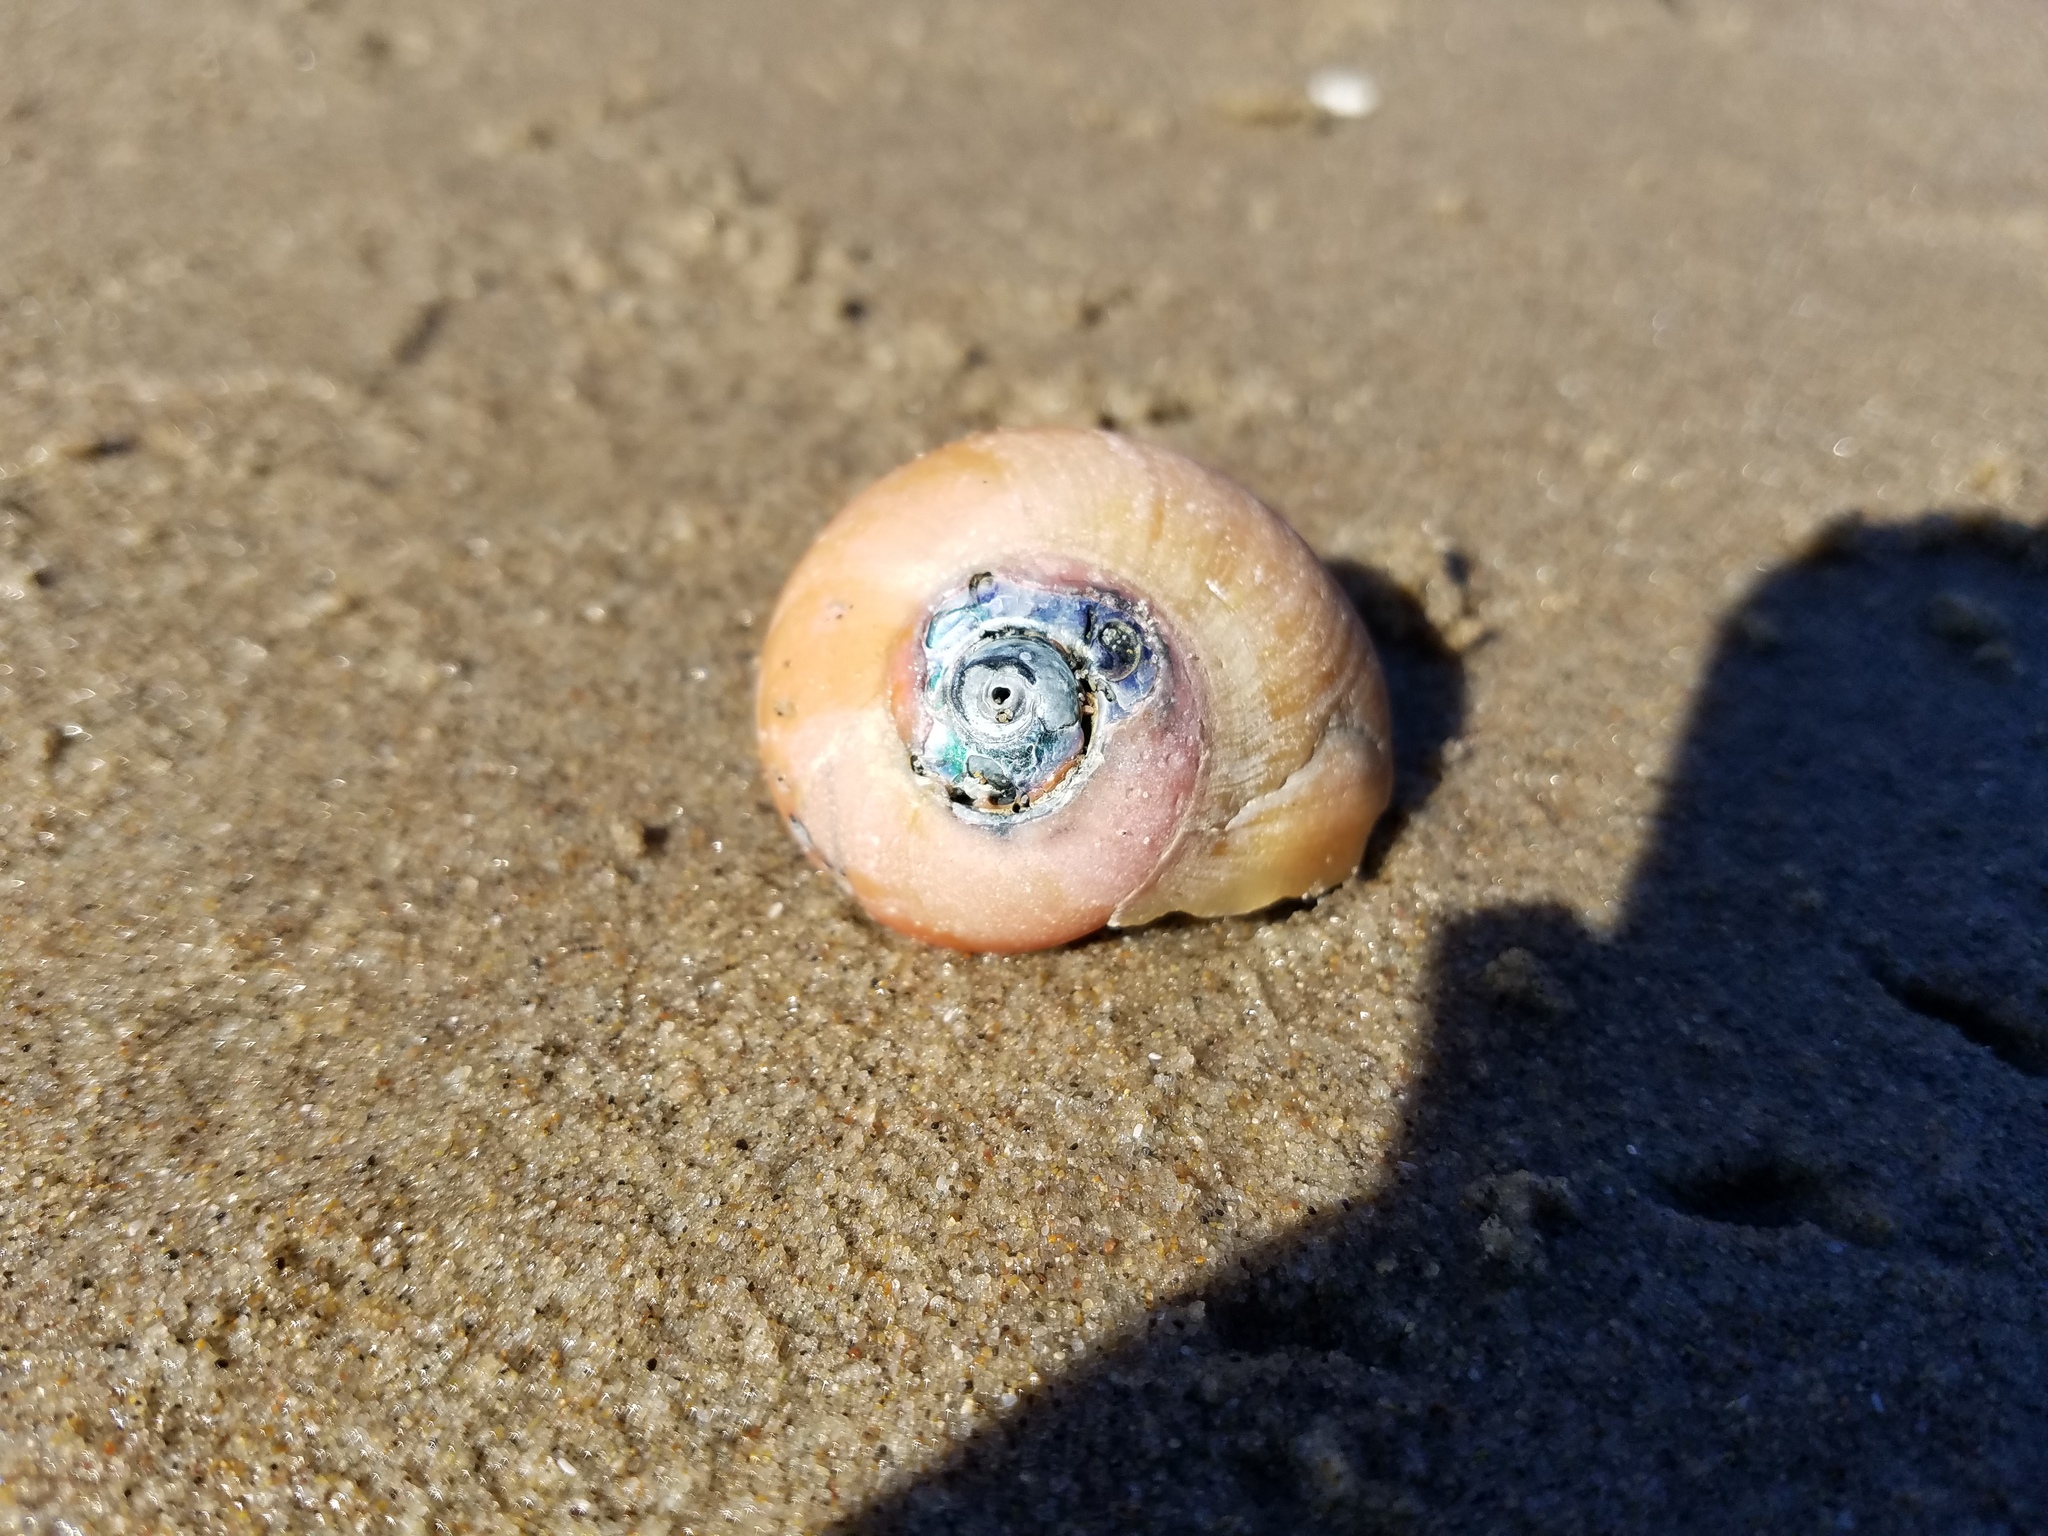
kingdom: Animalia
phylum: Mollusca
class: Gastropoda
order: Trochida
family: Tegulidae
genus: Norrisia
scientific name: Norrisia norrisii
